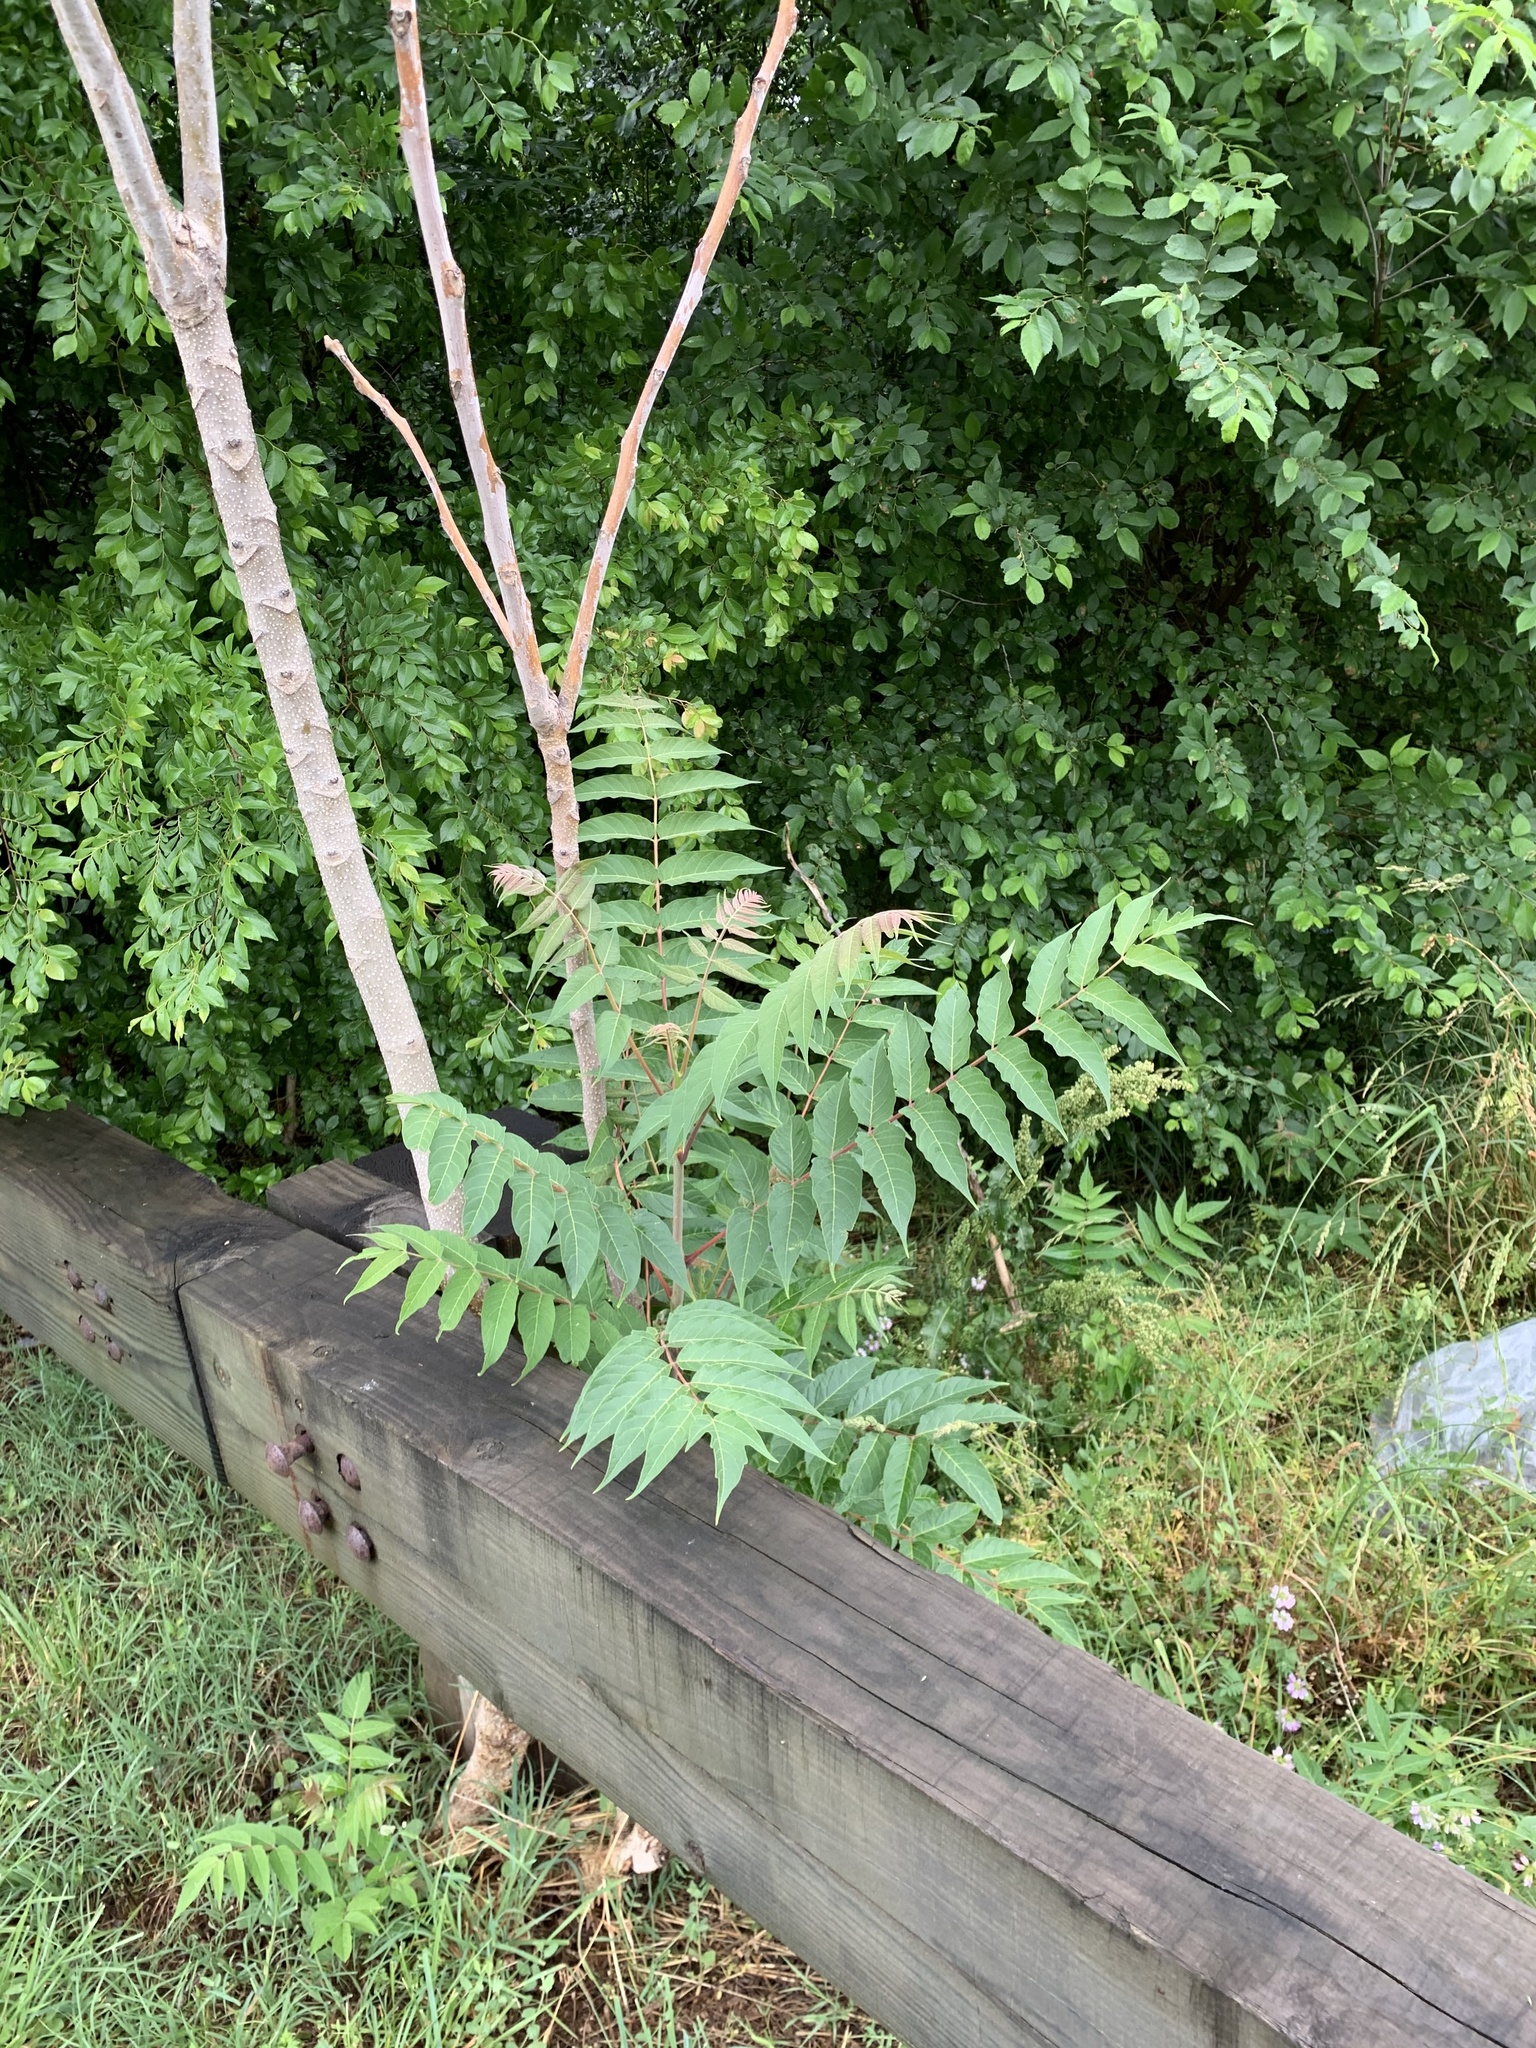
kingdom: Plantae
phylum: Tracheophyta
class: Magnoliopsida
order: Sapindales
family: Simaroubaceae
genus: Ailanthus
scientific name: Ailanthus altissima
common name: Tree-of-heaven
